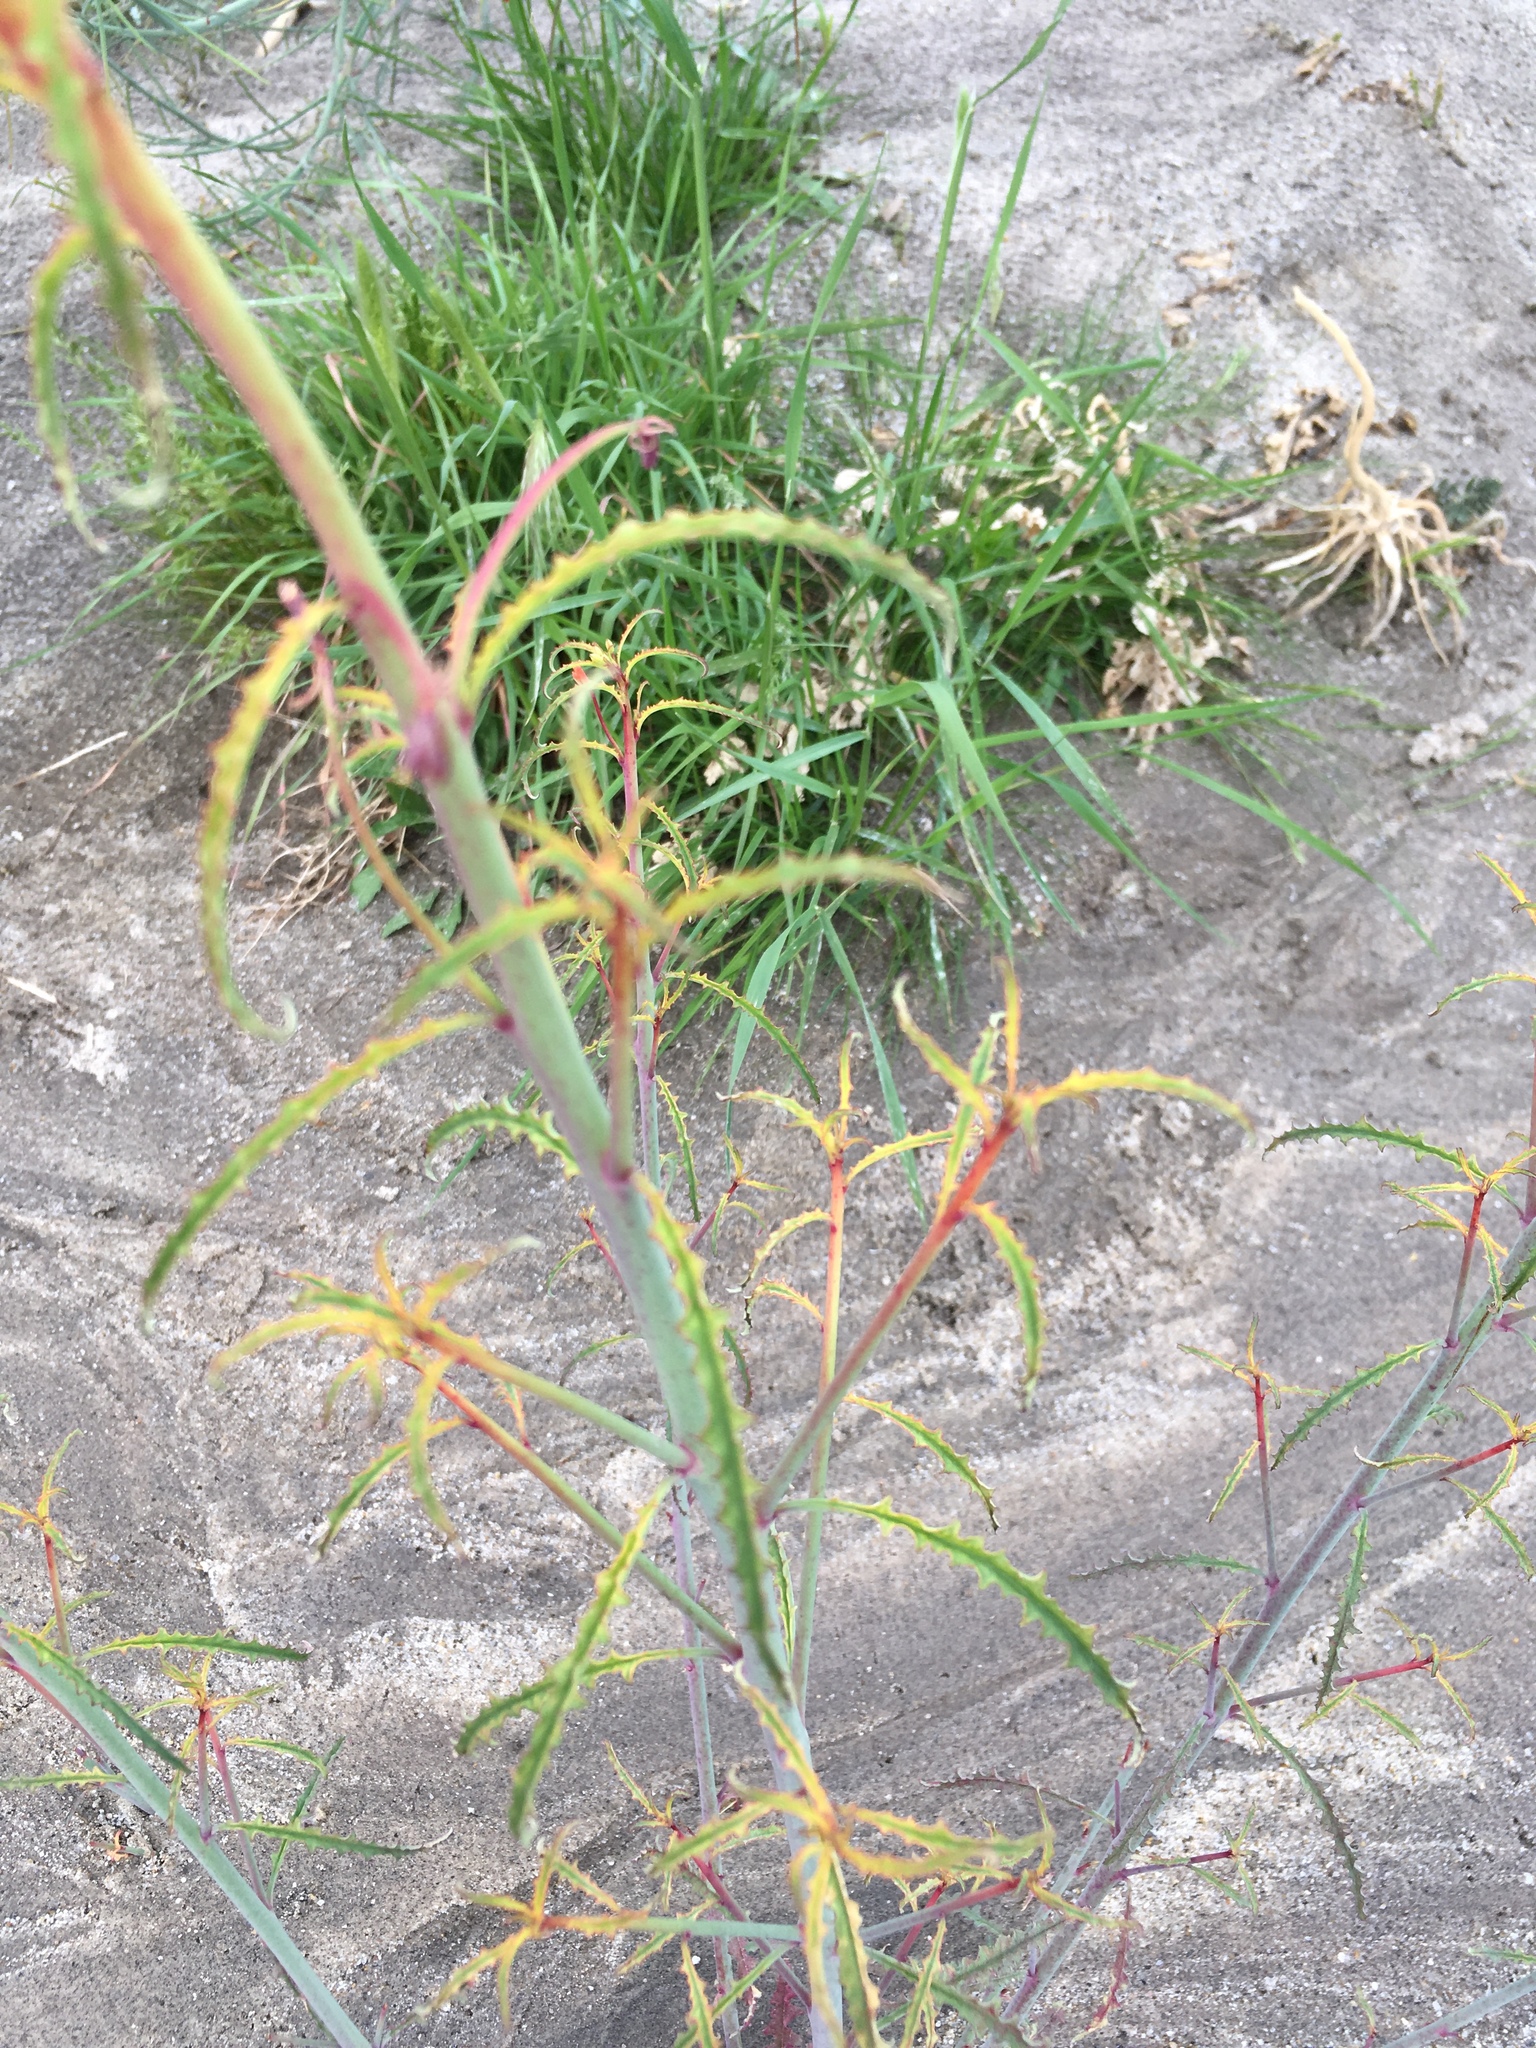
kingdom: Plantae
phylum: Tracheophyta
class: Magnoliopsida
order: Myrtales
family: Onagraceae
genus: Eulobus
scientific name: Eulobus californicus
